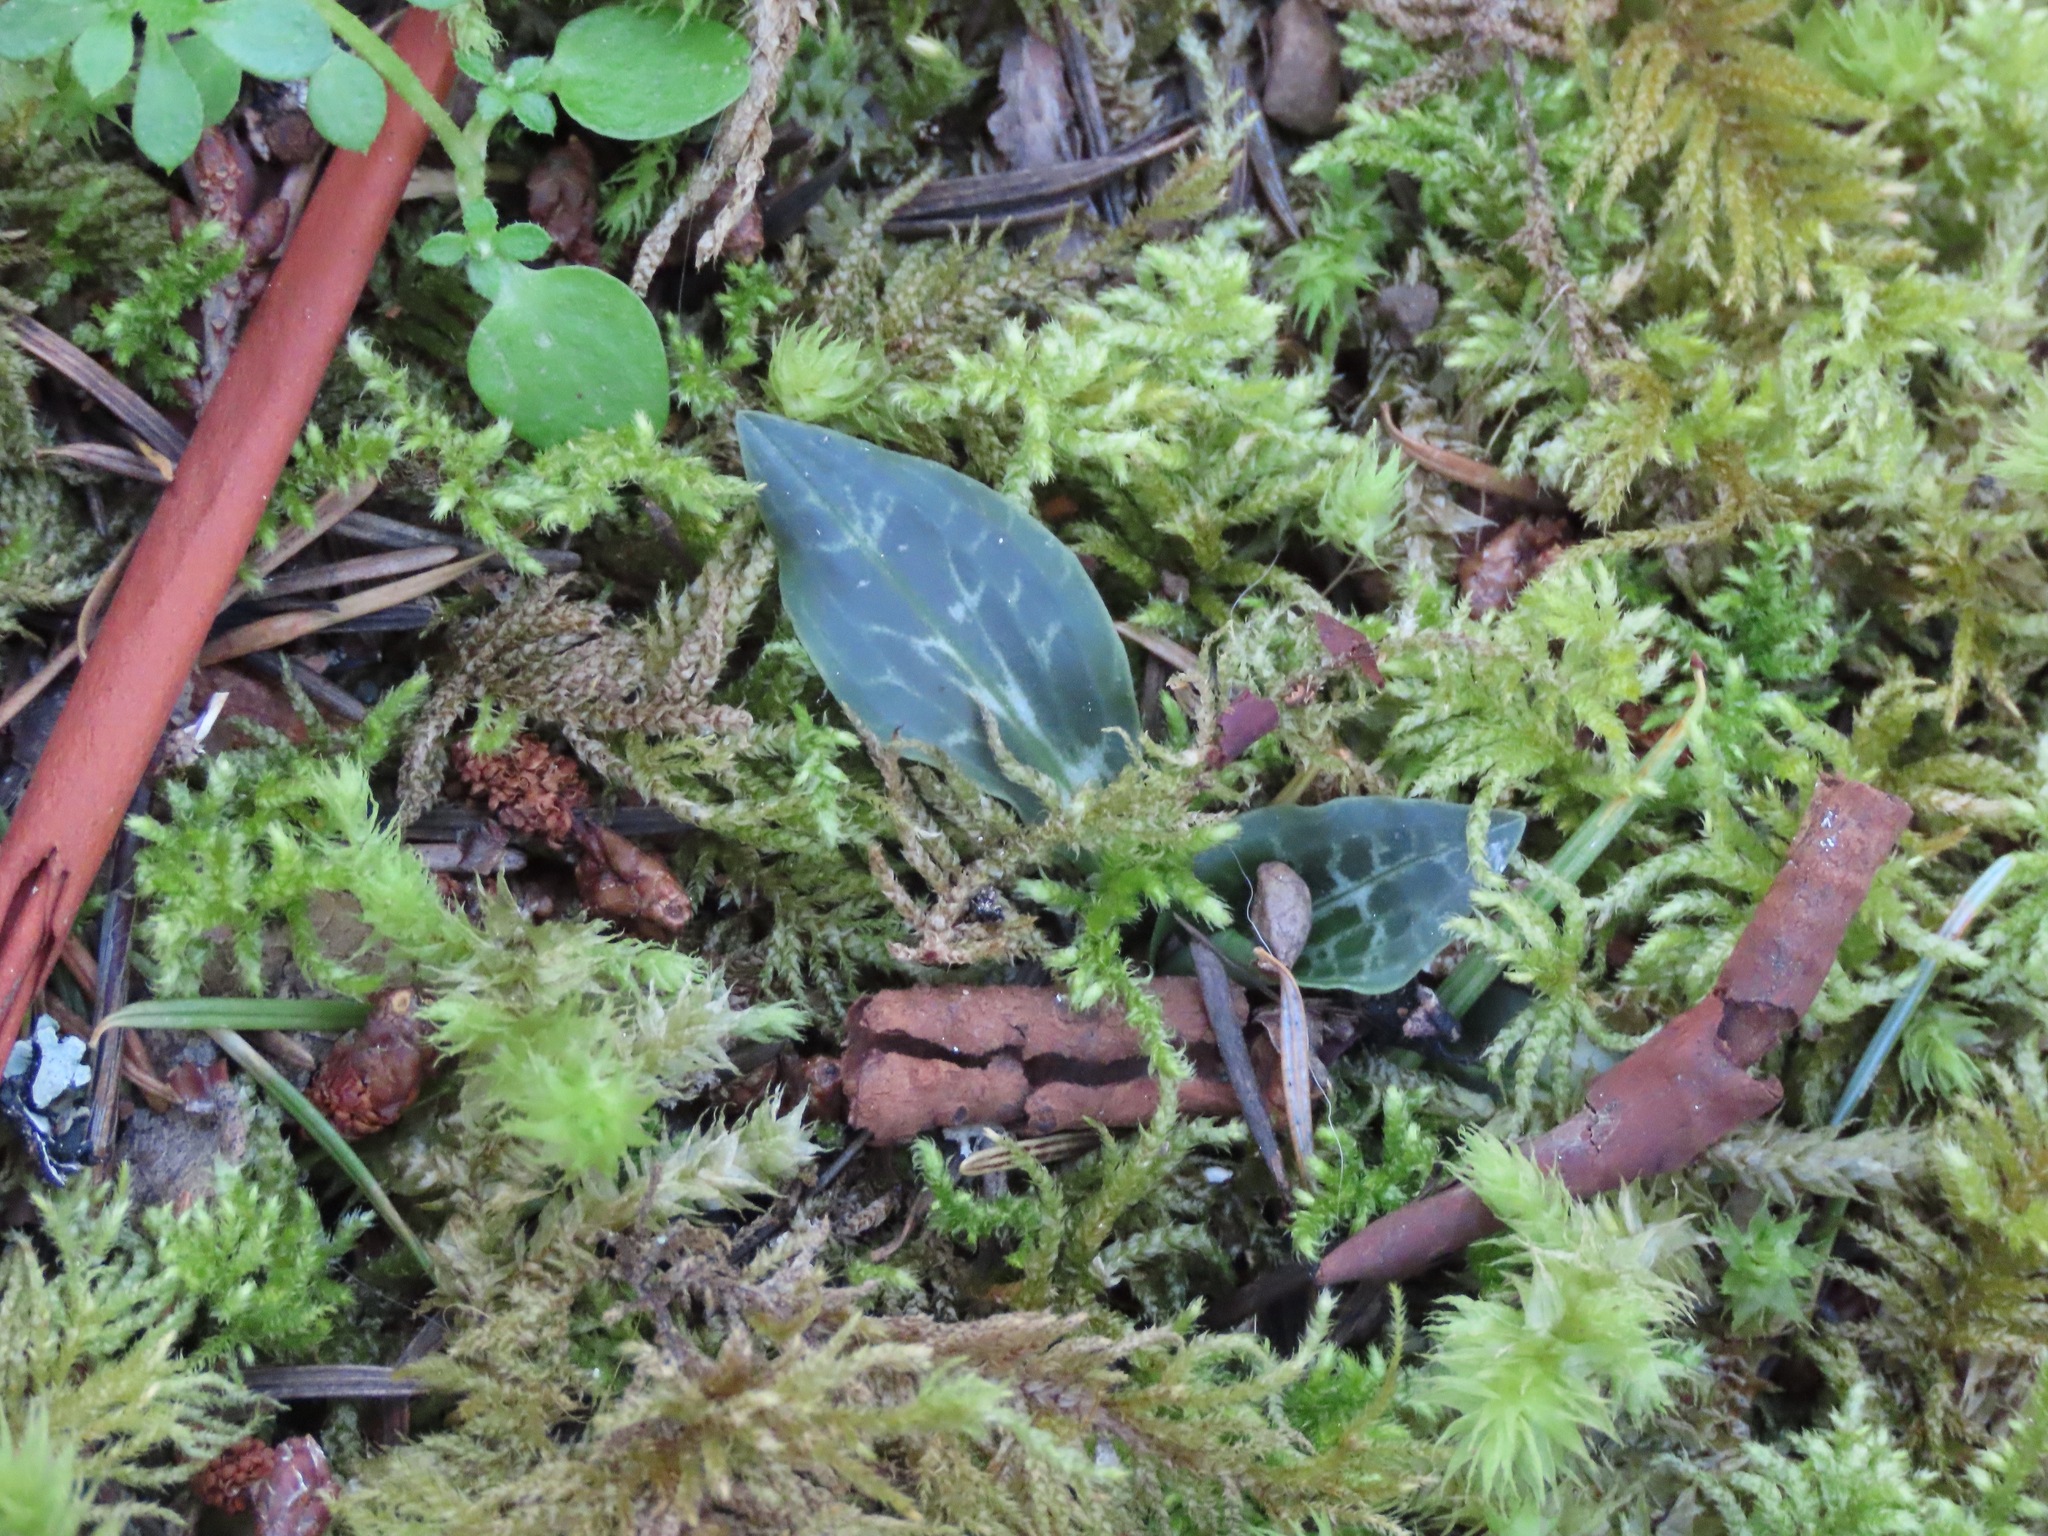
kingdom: Plantae
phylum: Tracheophyta
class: Liliopsida
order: Asparagales
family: Orchidaceae
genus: Goodyera
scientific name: Goodyera oblongifolia
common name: Giant rattlesnake-plantain
